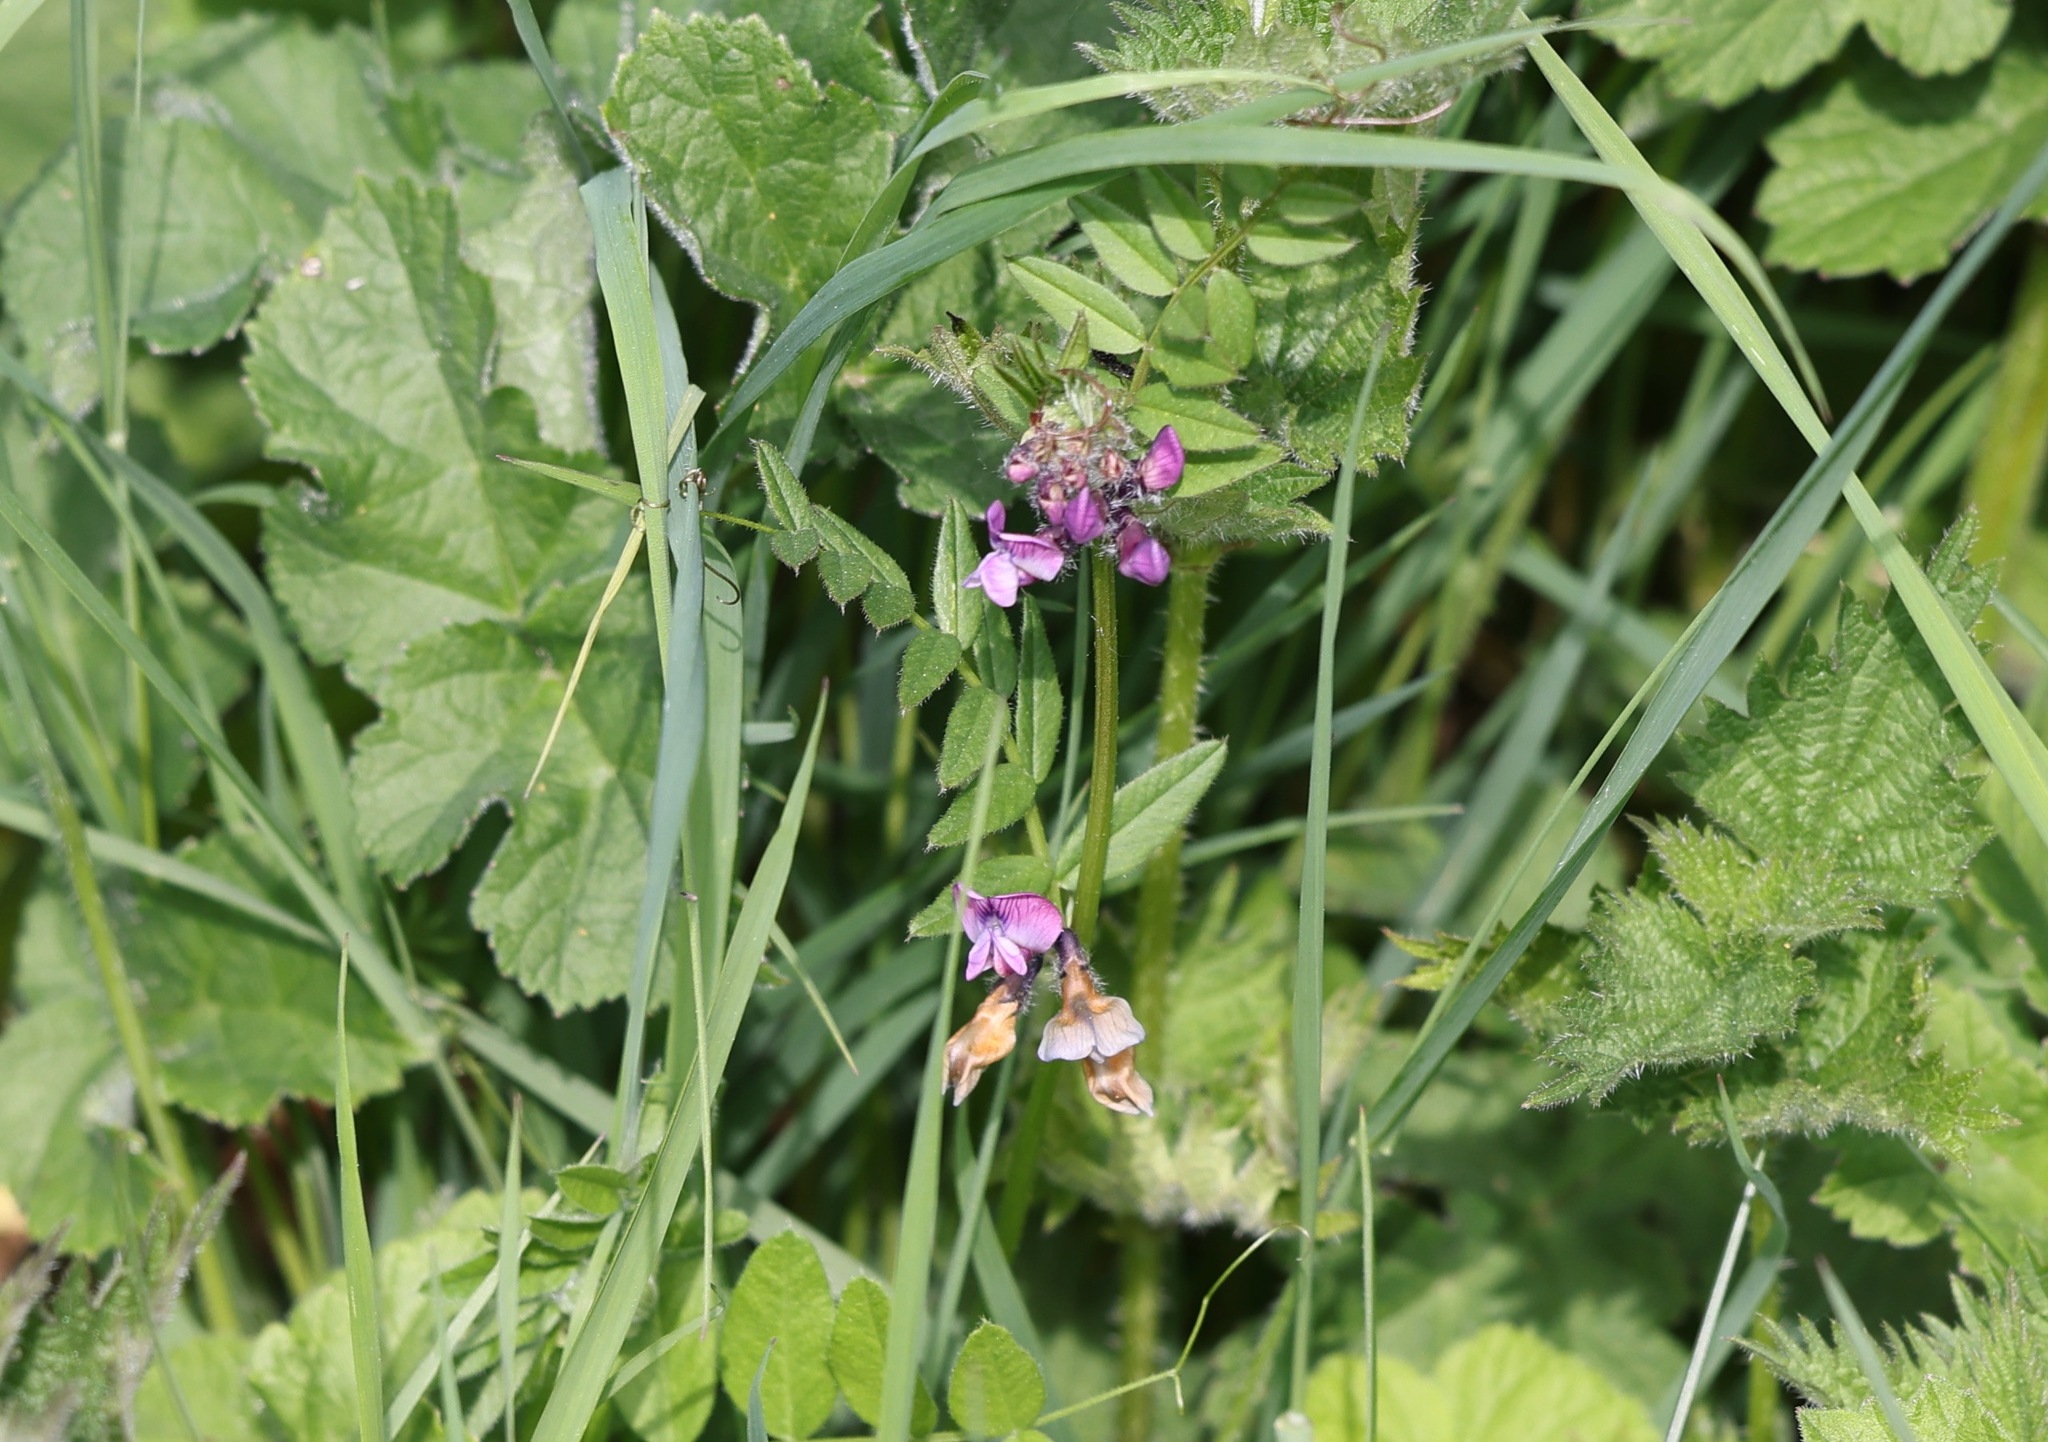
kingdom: Plantae
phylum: Tracheophyta
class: Magnoliopsida
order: Fabales
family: Fabaceae
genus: Vicia
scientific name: Vicia sepium
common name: Bush vetch
